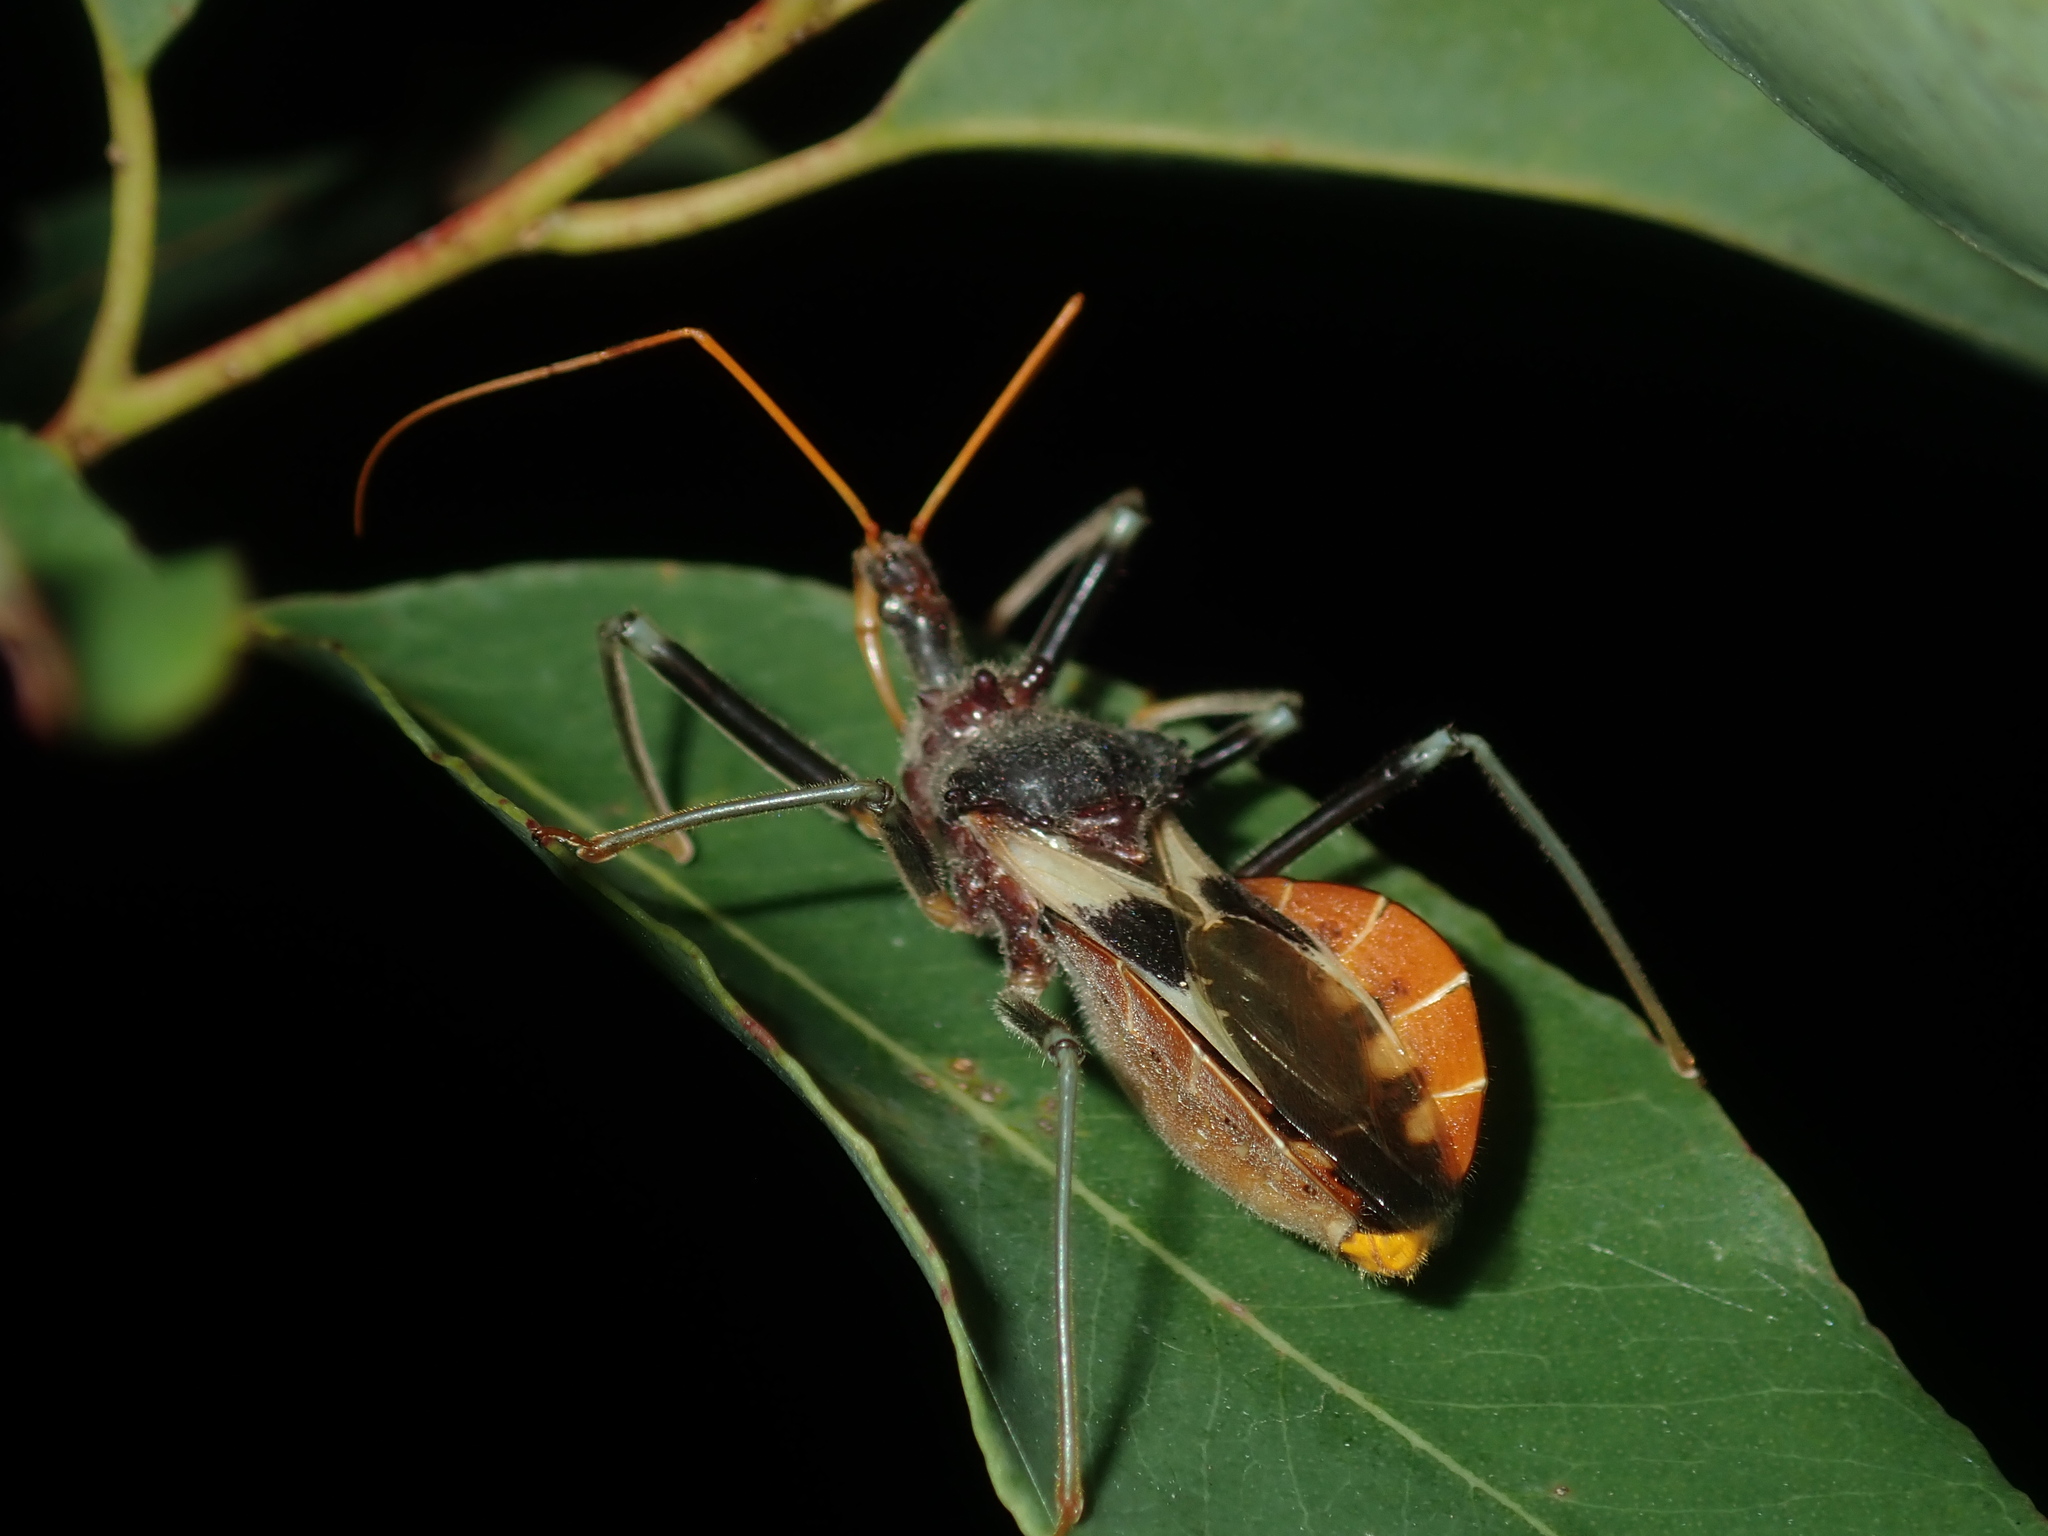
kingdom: Animalia
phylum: Arthropoda
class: Insecta
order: Hemiptera
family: Reduviidae
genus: Pristhesancus
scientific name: Pristhesancus plagipennis
